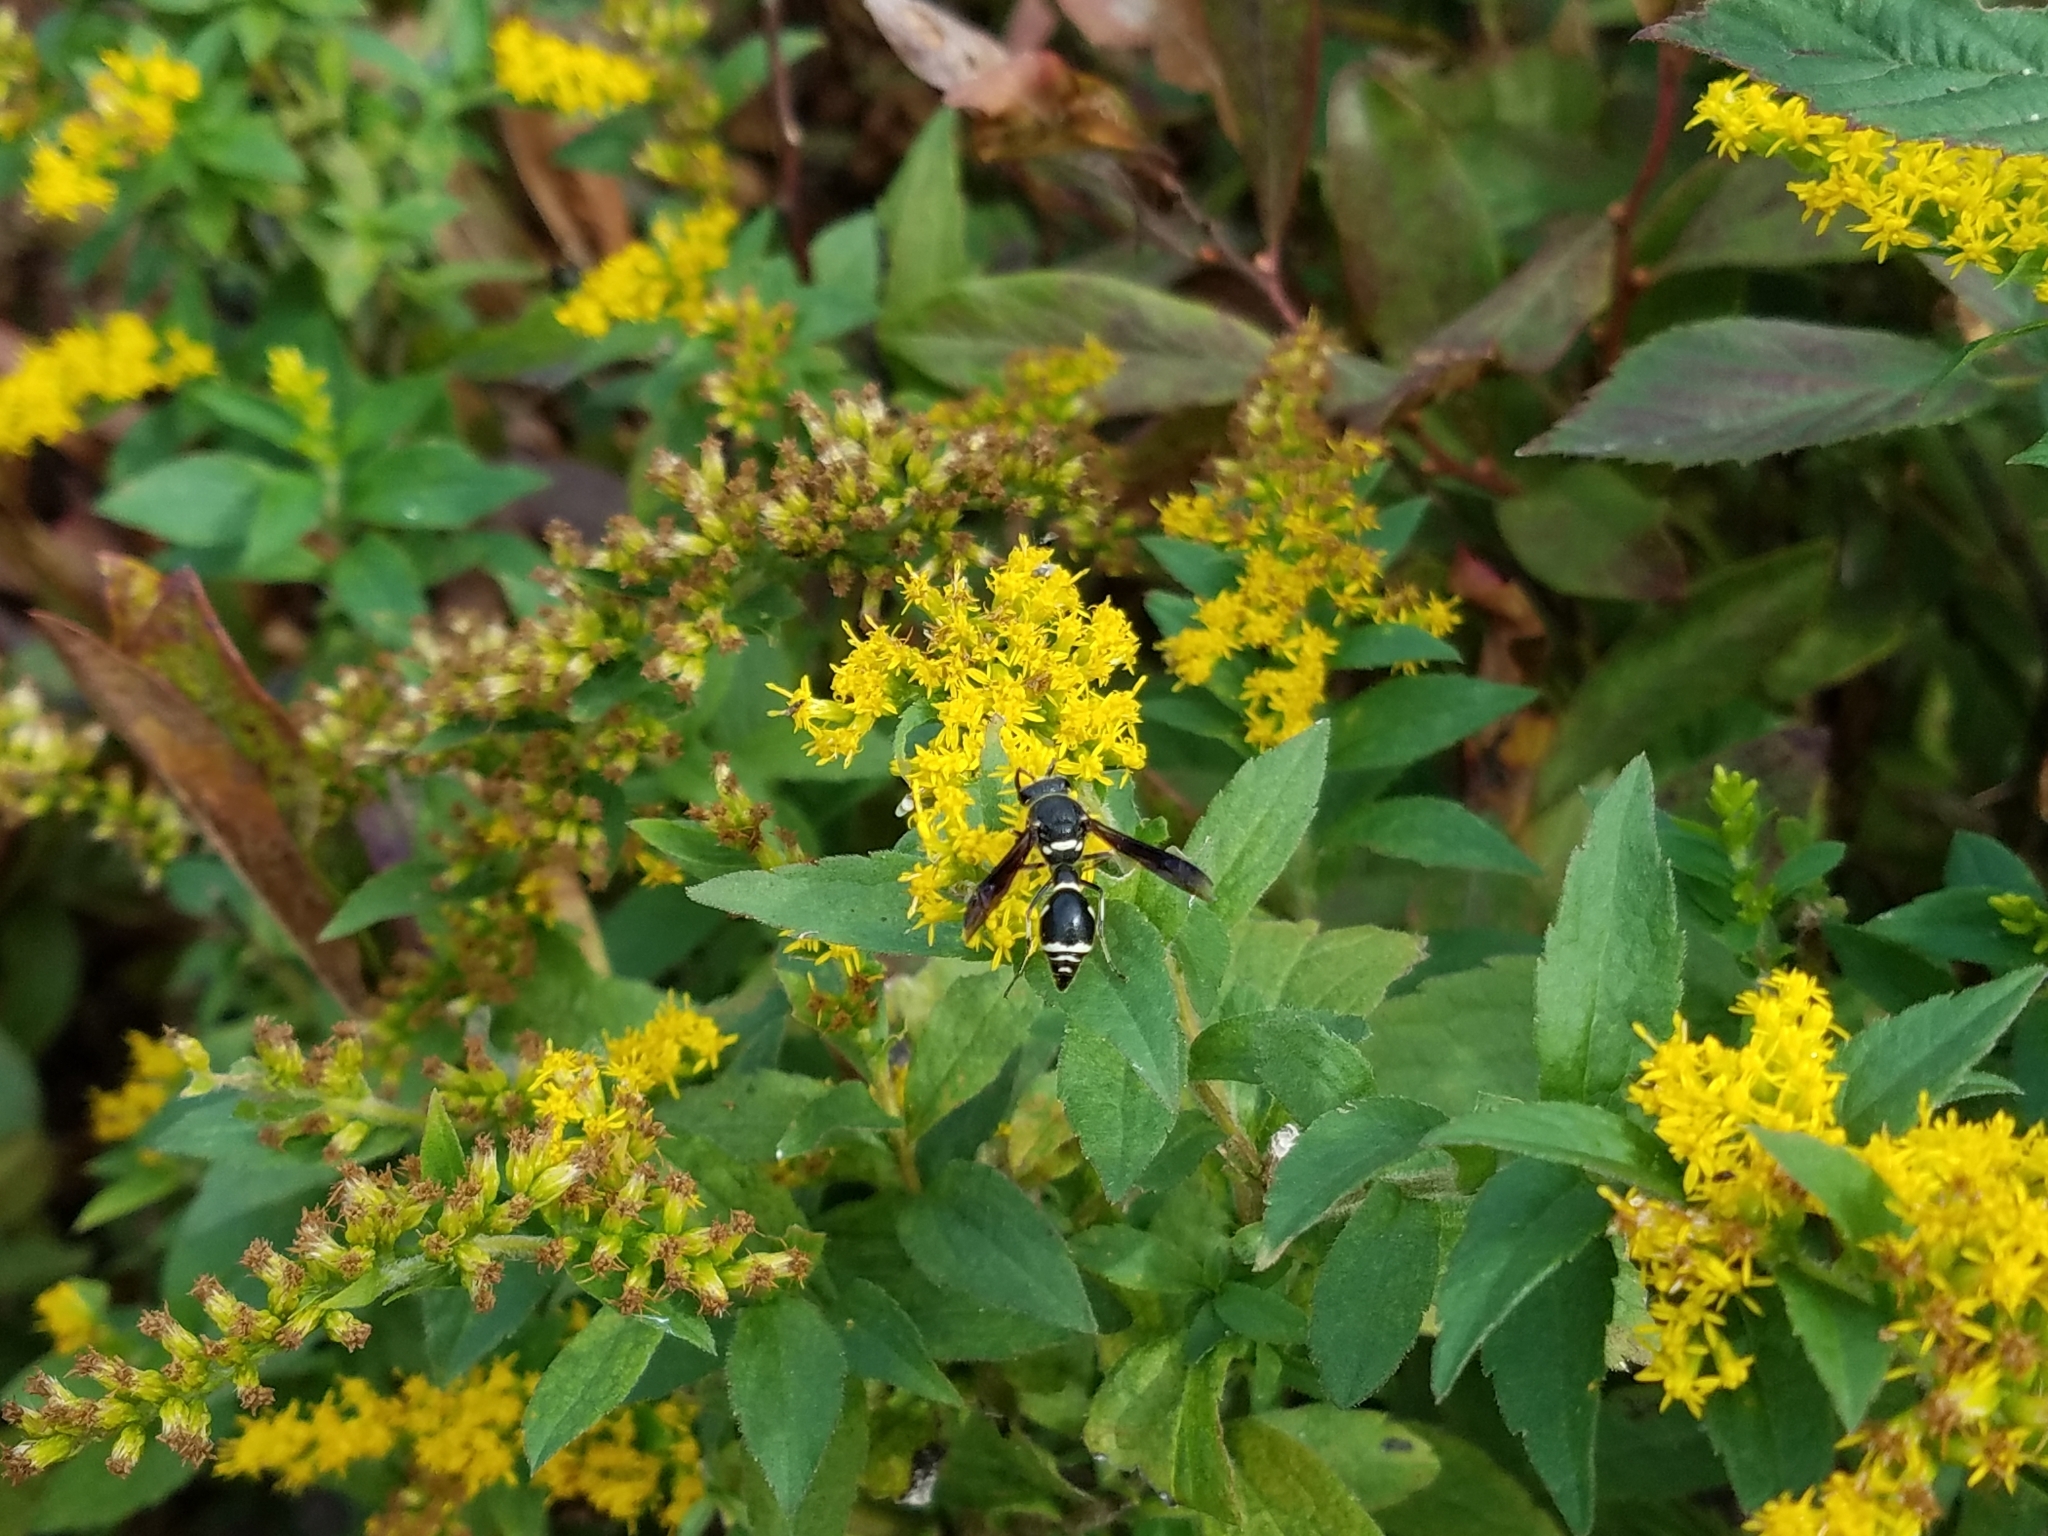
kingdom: Animalia
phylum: Arthropoda
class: Insecta
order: Hymenoptera
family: Vespidae
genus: Eumenes
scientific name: Eumenes fraternus
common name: Fraternal potter wasp
